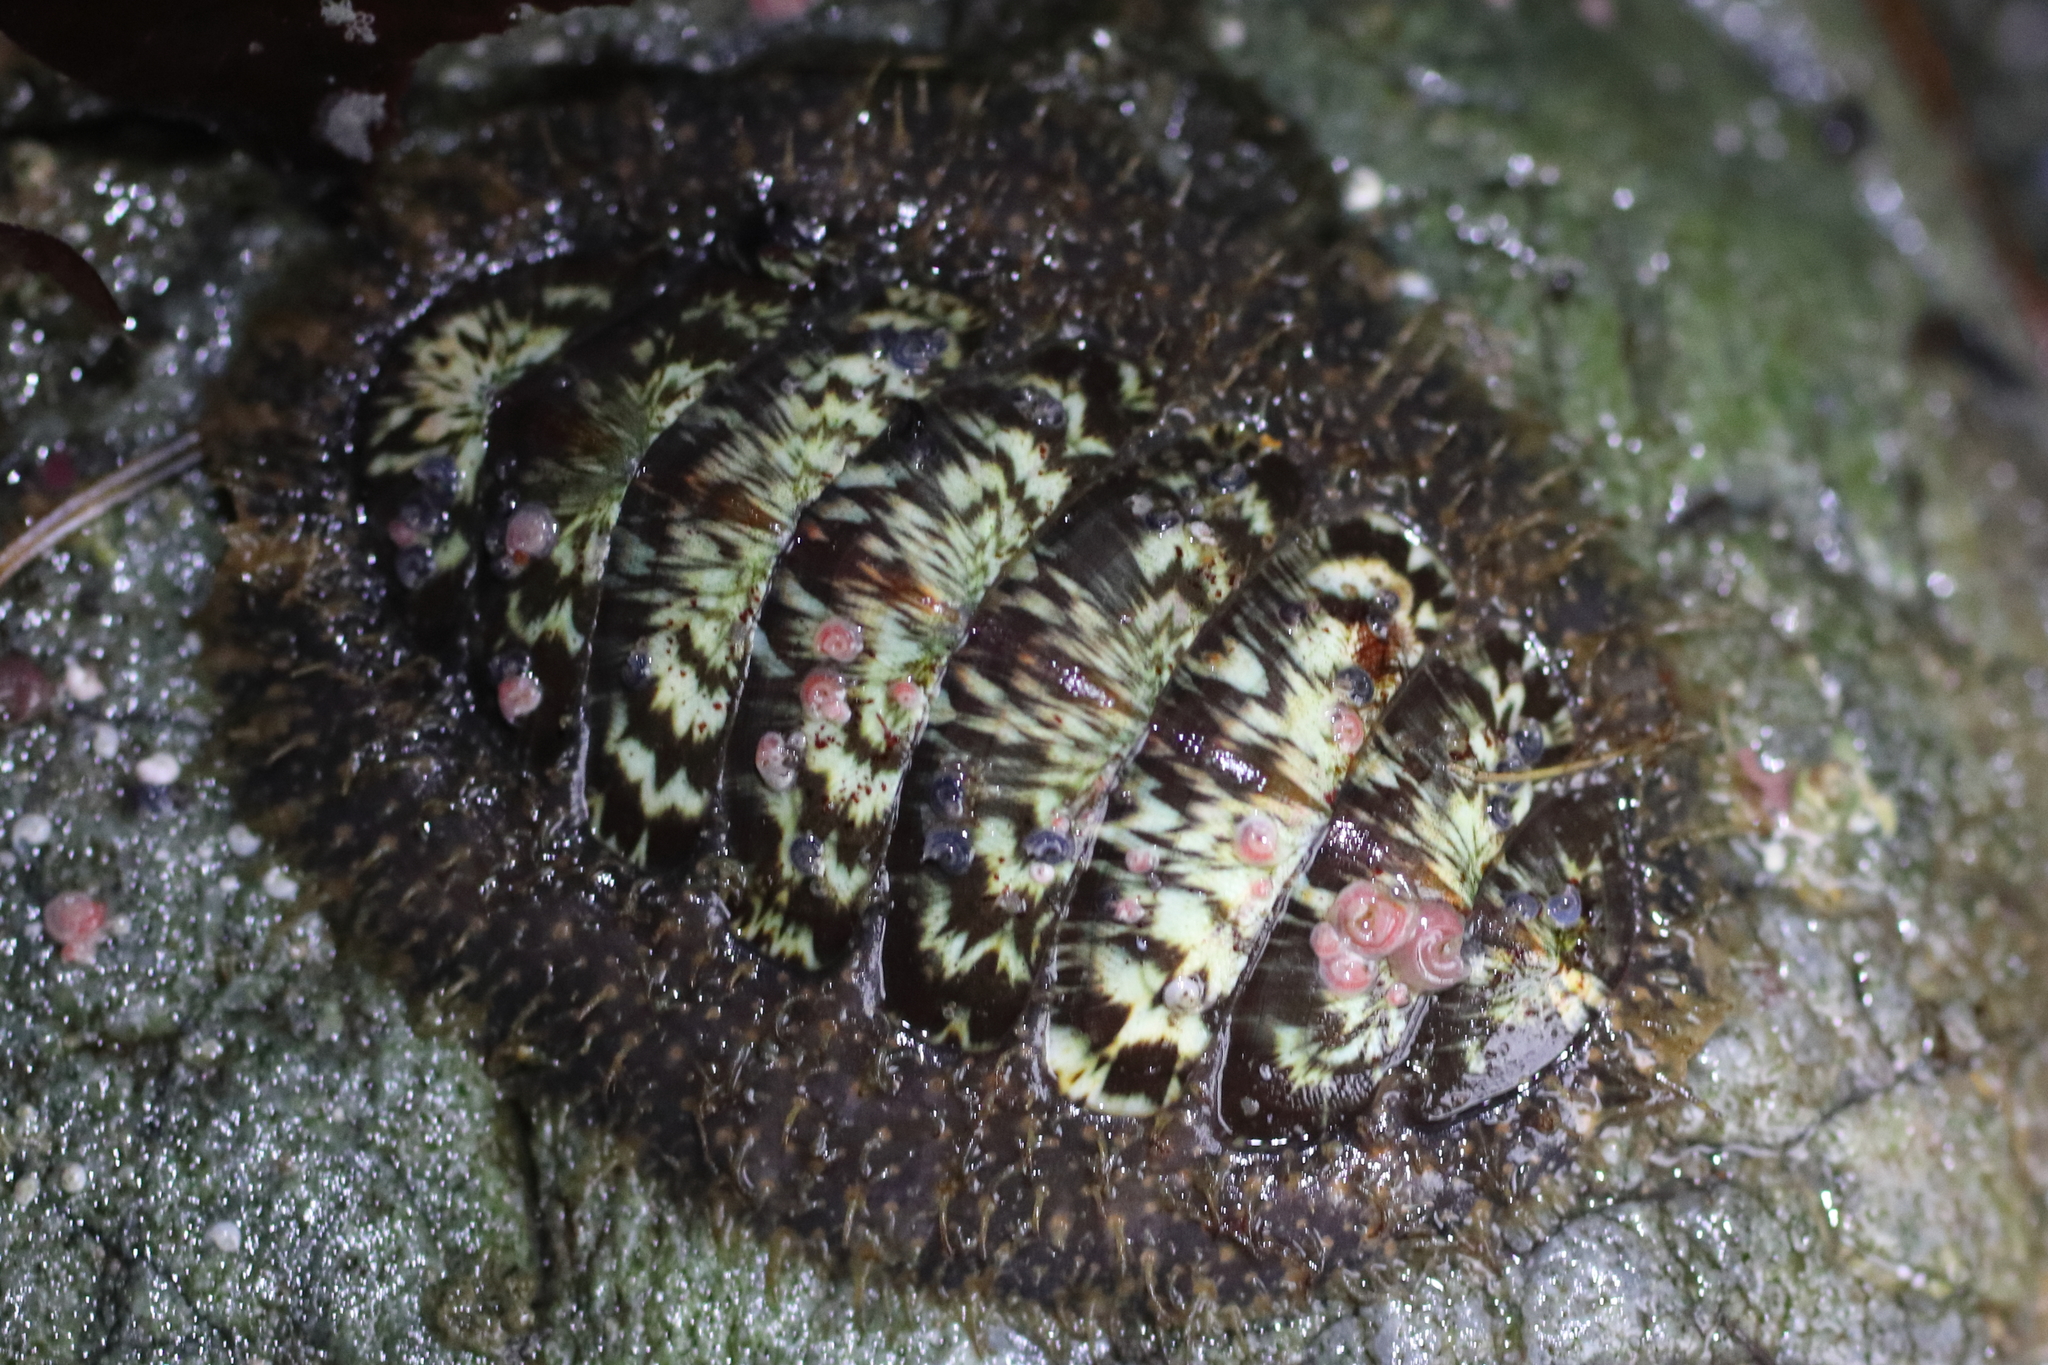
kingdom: Animalia
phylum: Mollusca
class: Polyplacophora
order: Chitonida
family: Mopaliidae
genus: Mopalia
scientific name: Mopalia lignosa
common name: Woody chiton
